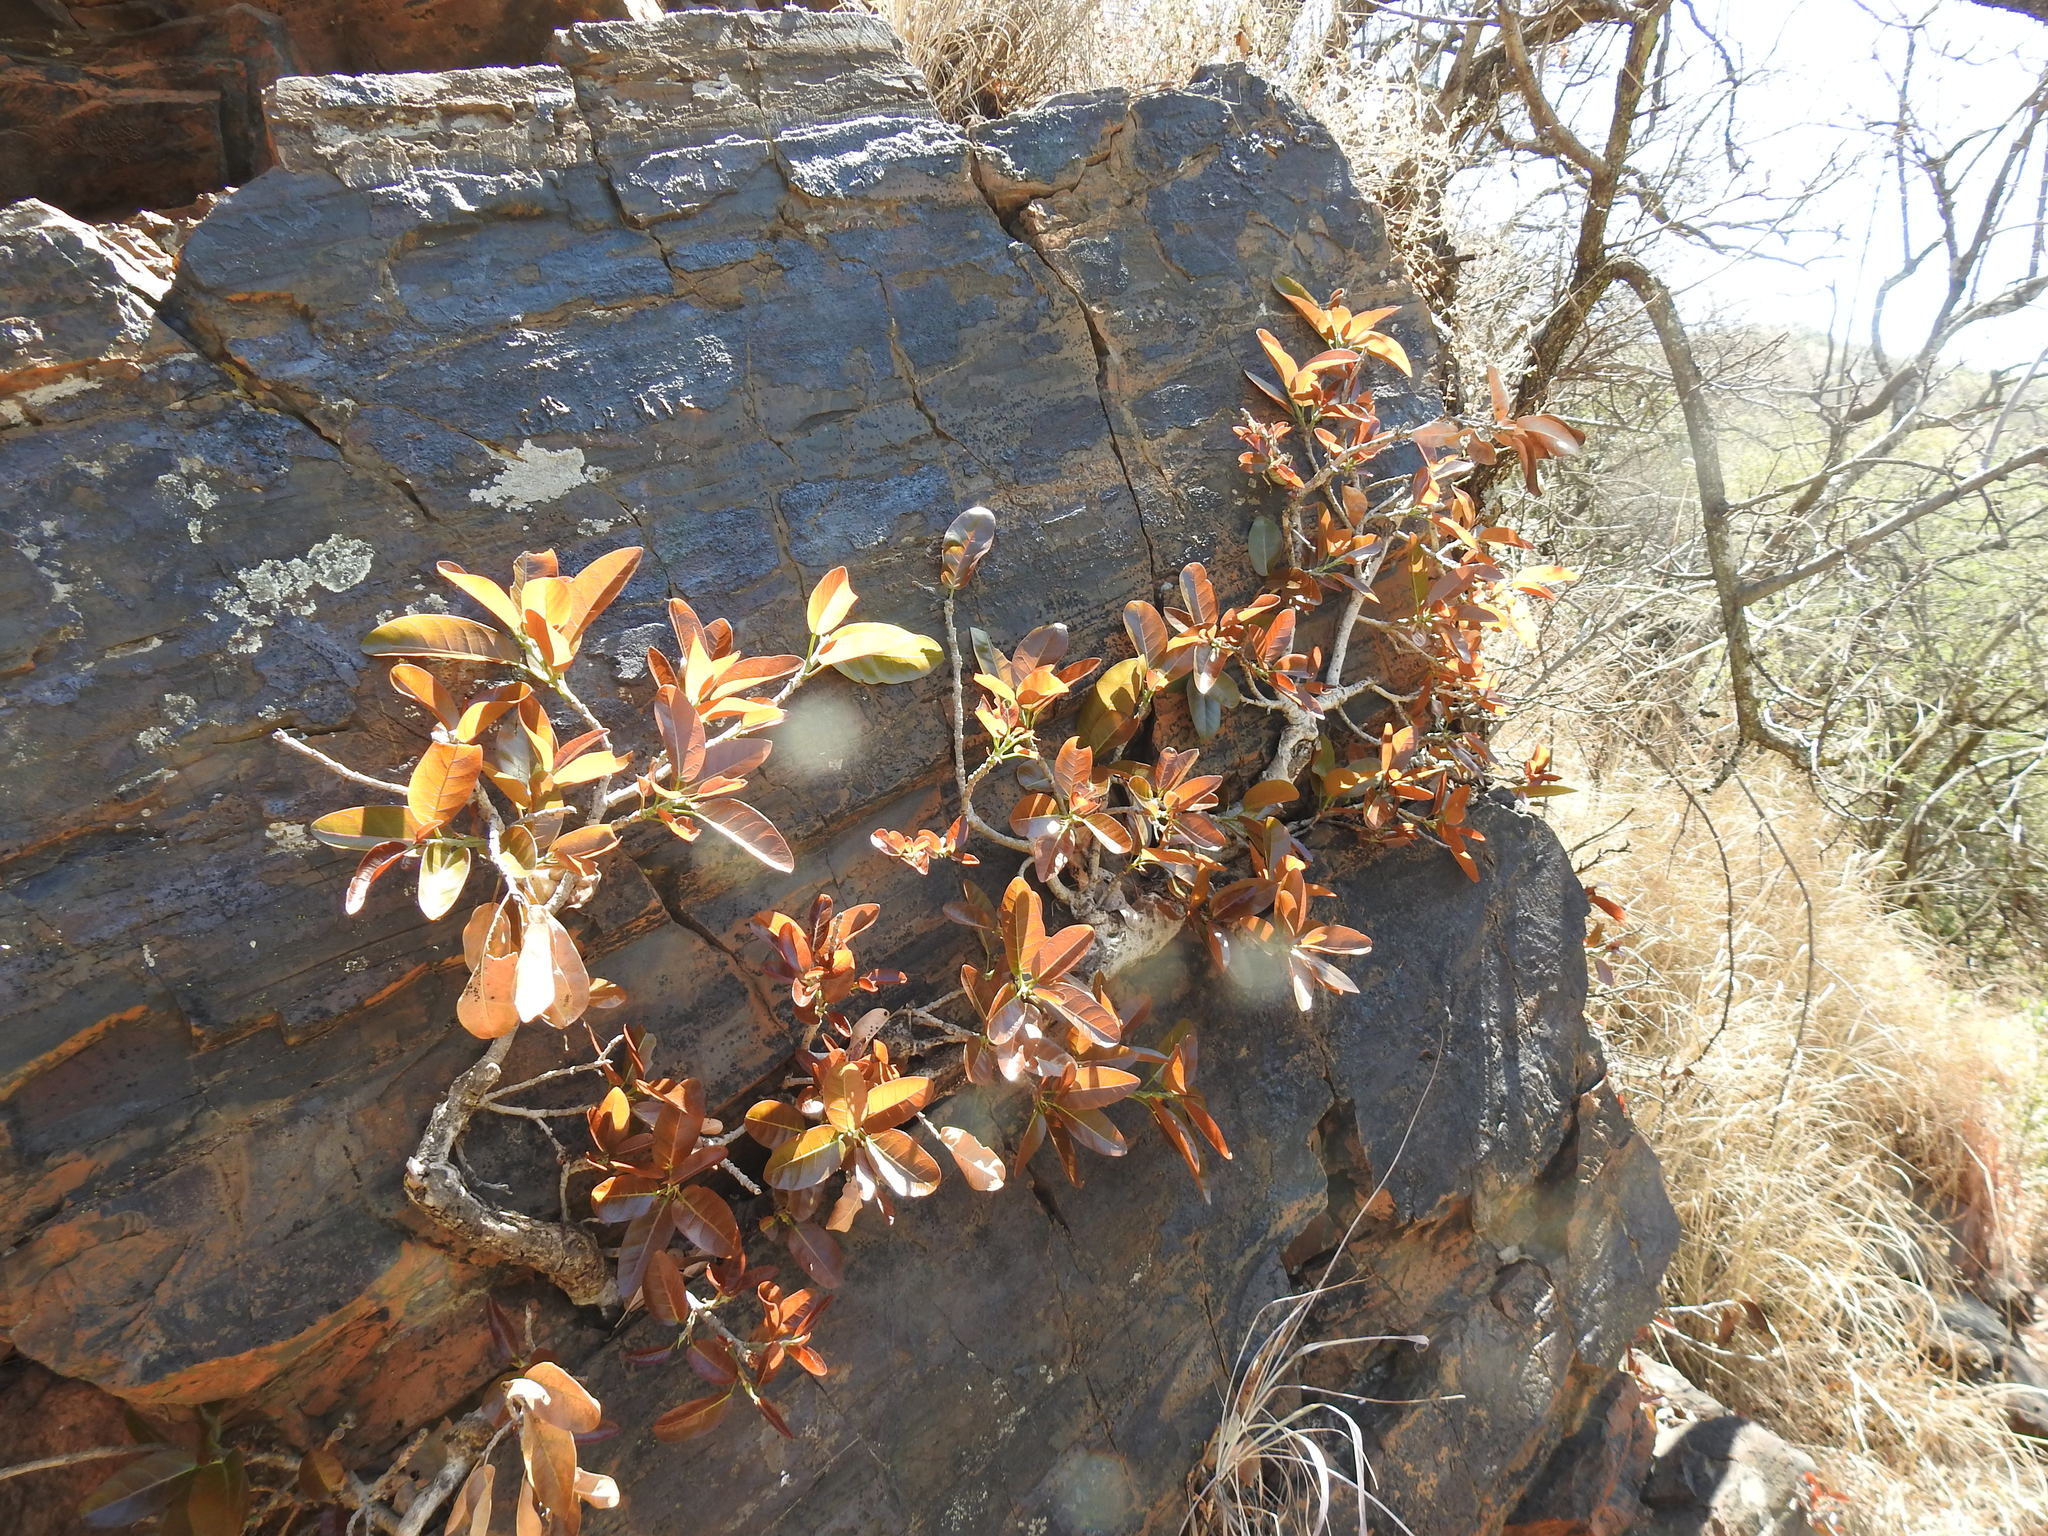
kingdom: Plantae
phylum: Tracheophyta
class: Magnoliopsida
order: Rosales
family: Moraceae
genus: Ficus
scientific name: Ficus ingens
